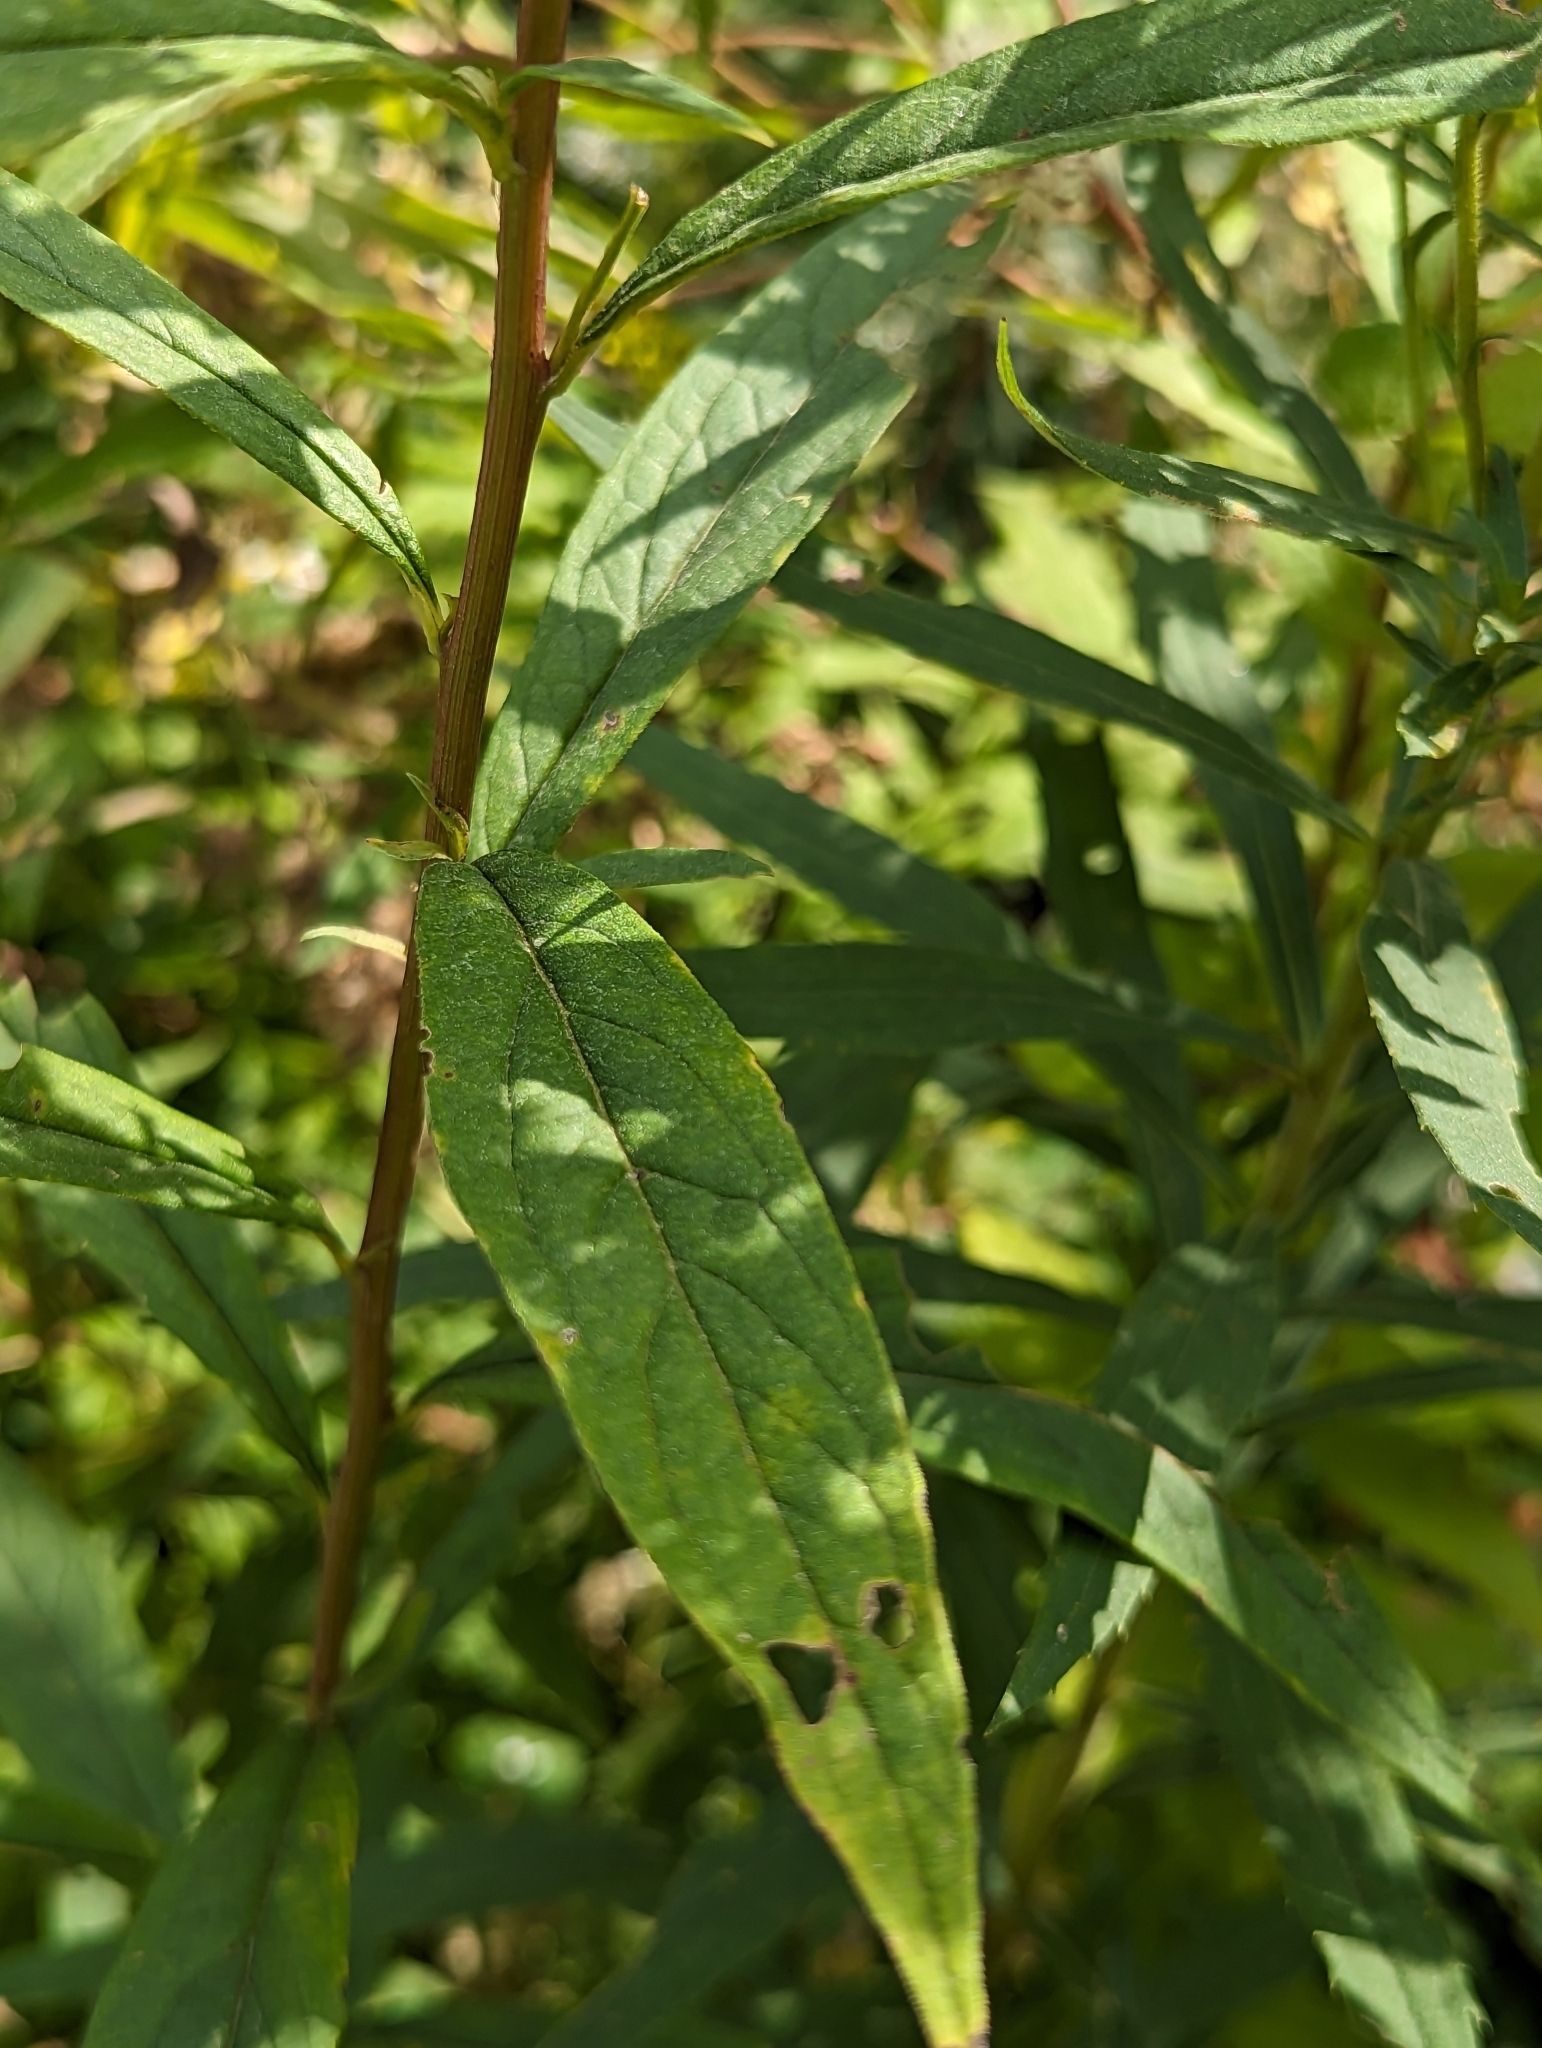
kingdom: Plantae
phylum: Tracheophyta
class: Magnoliopsida
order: Asterales
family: Asteraceae
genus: Doellingeria
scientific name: Doellingeria umbellata
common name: Flat-top white aster
